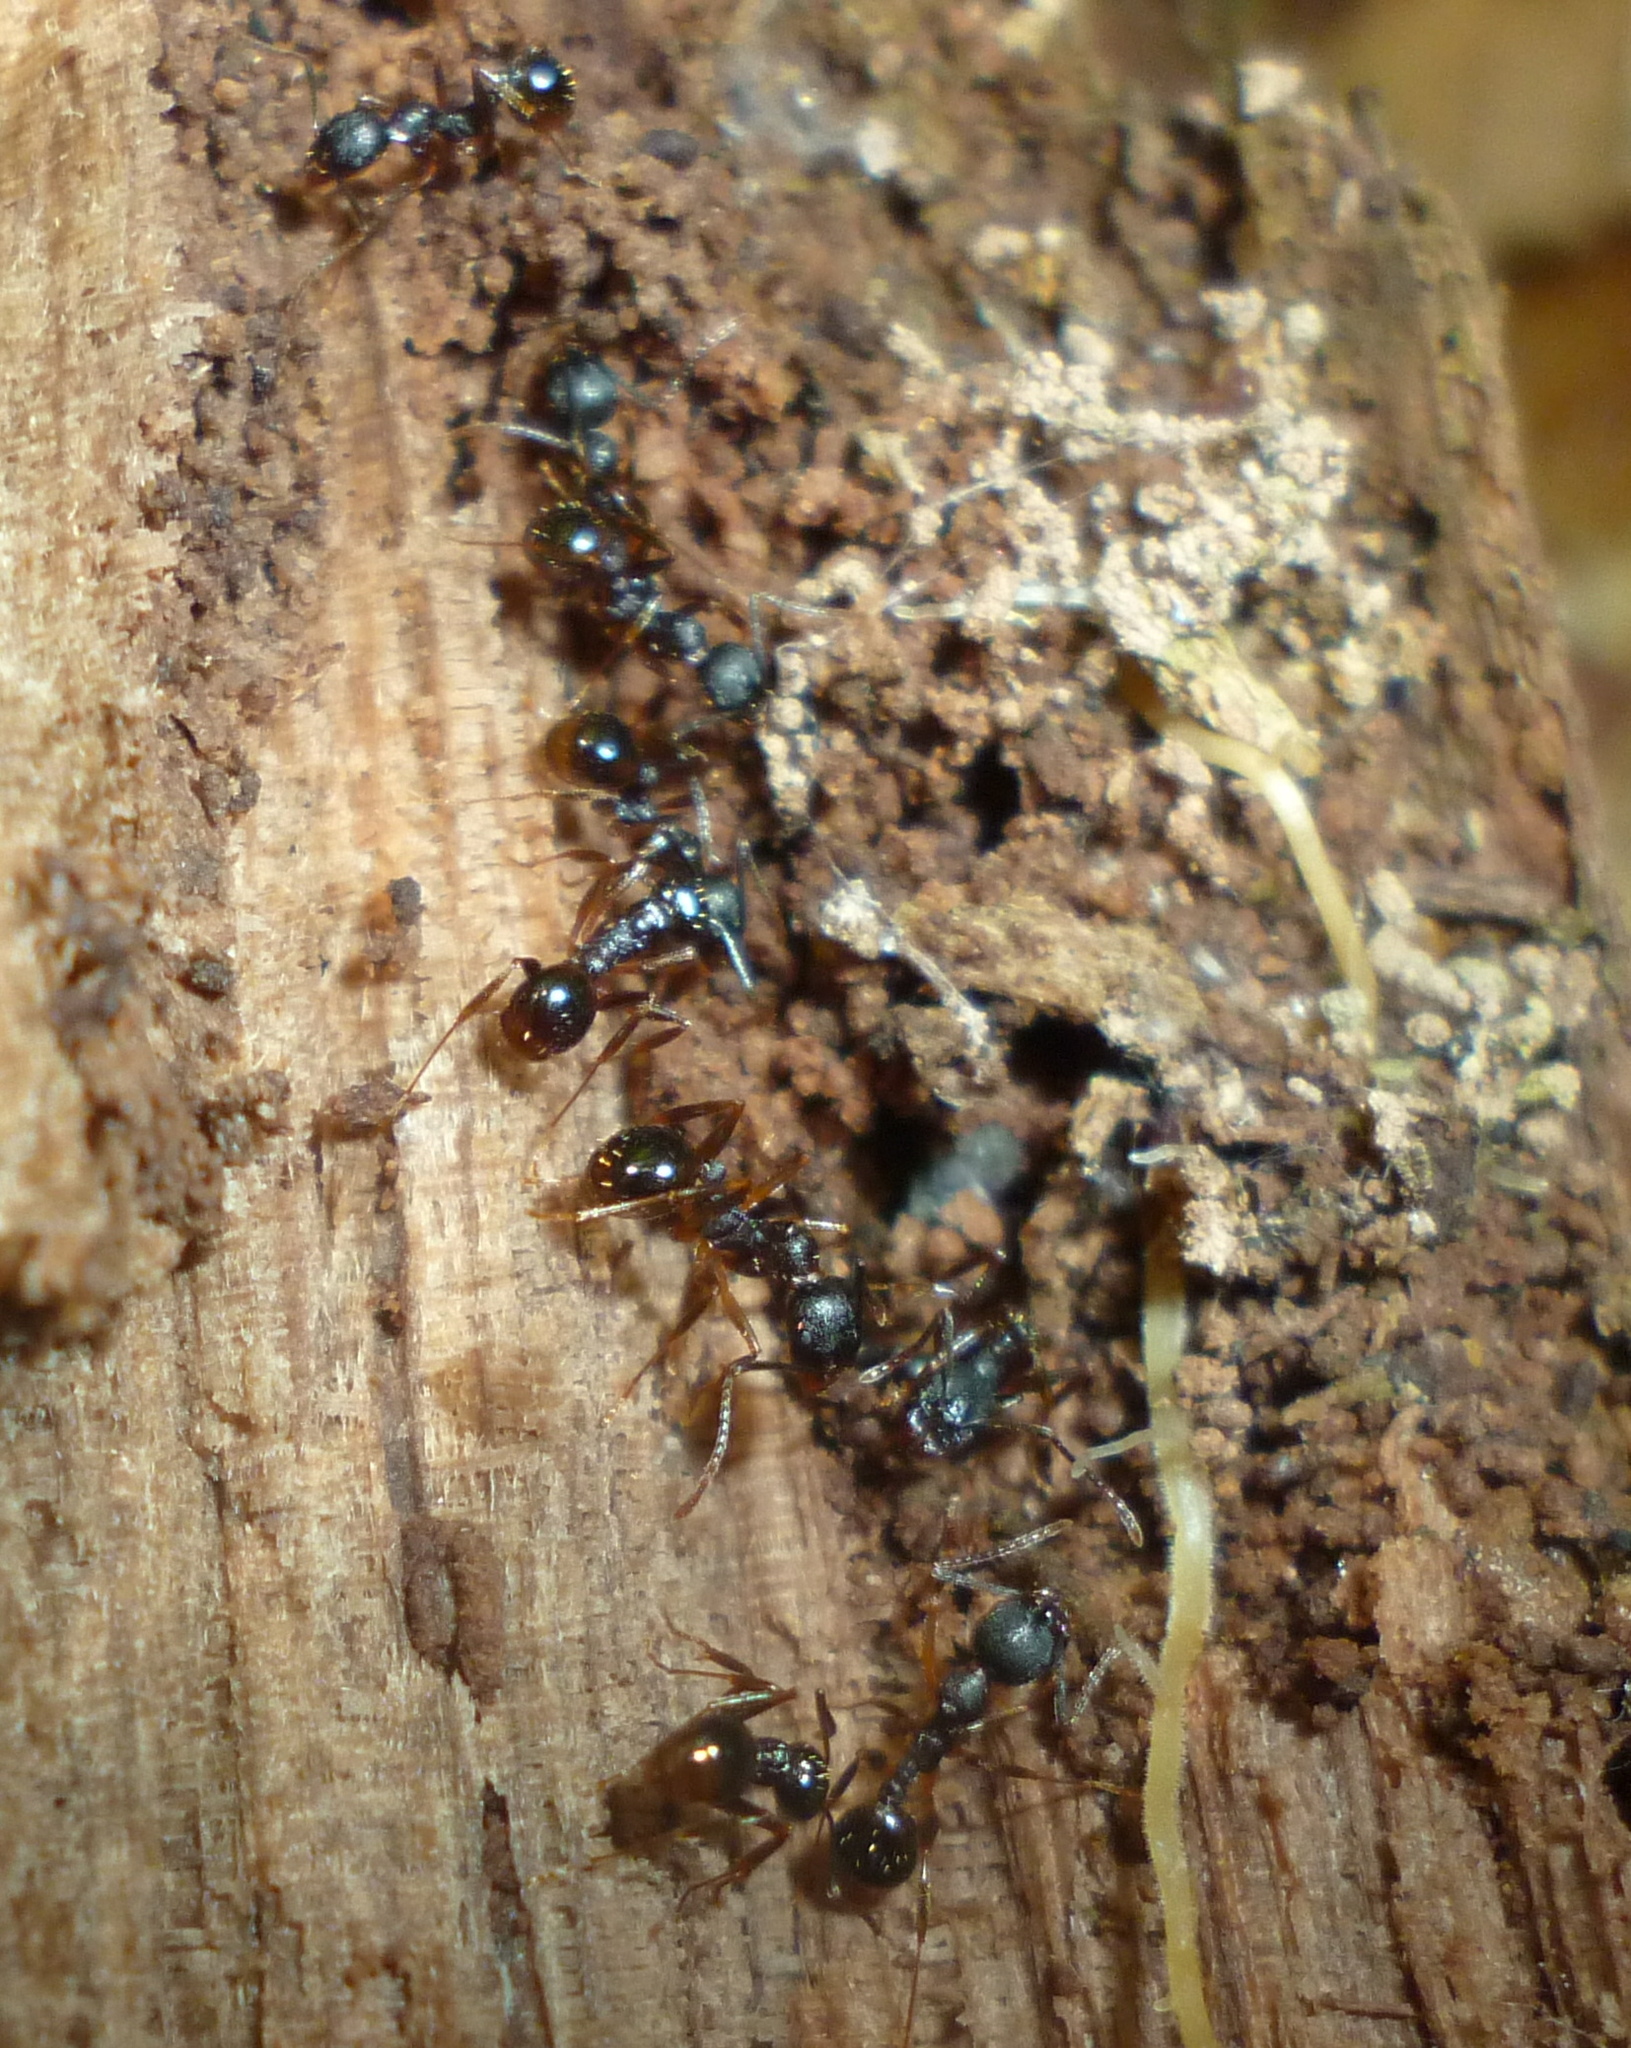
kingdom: Animalia
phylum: Arthropoda
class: Insecta
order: Hymenoptera
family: Formicidae
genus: Aphaenogaster
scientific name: Aphaenogaster picea
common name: Pitch-black collared ant
